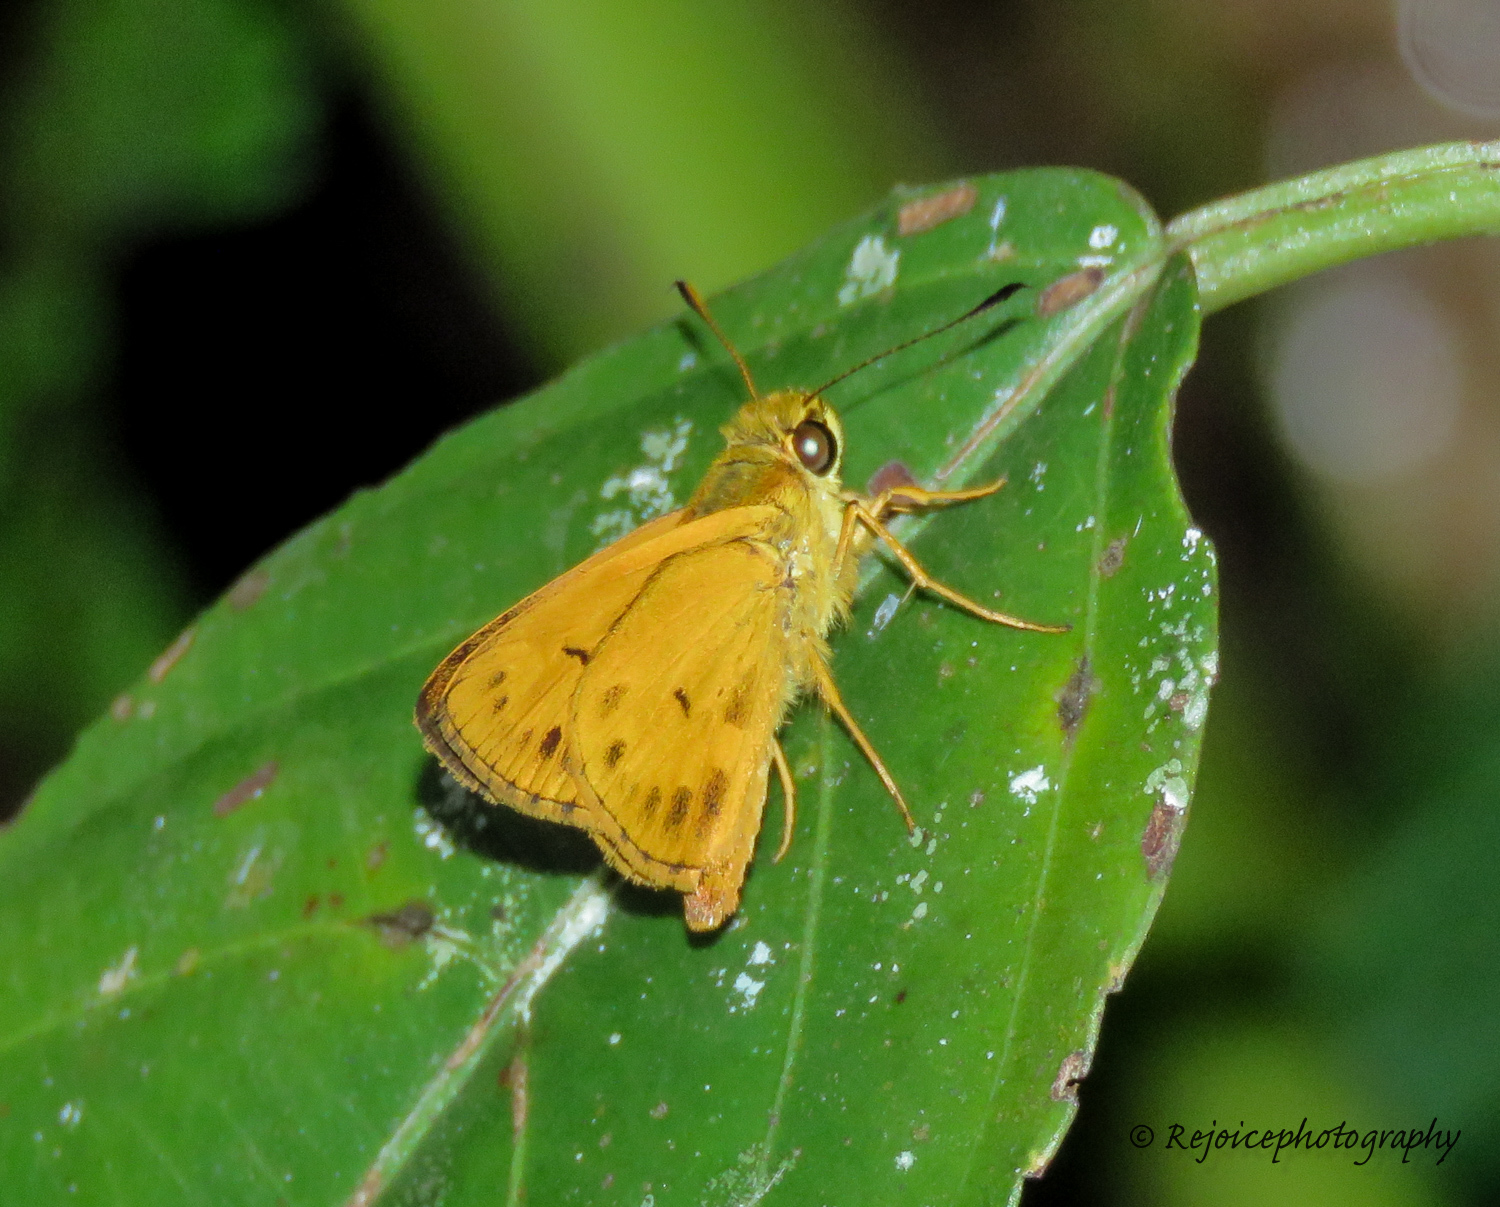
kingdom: Animalia
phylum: Arthropoda
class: Insecta
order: Lepidoptera
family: Hesperiidae
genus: Oriens
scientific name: Oriens gola
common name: Common dartlet
